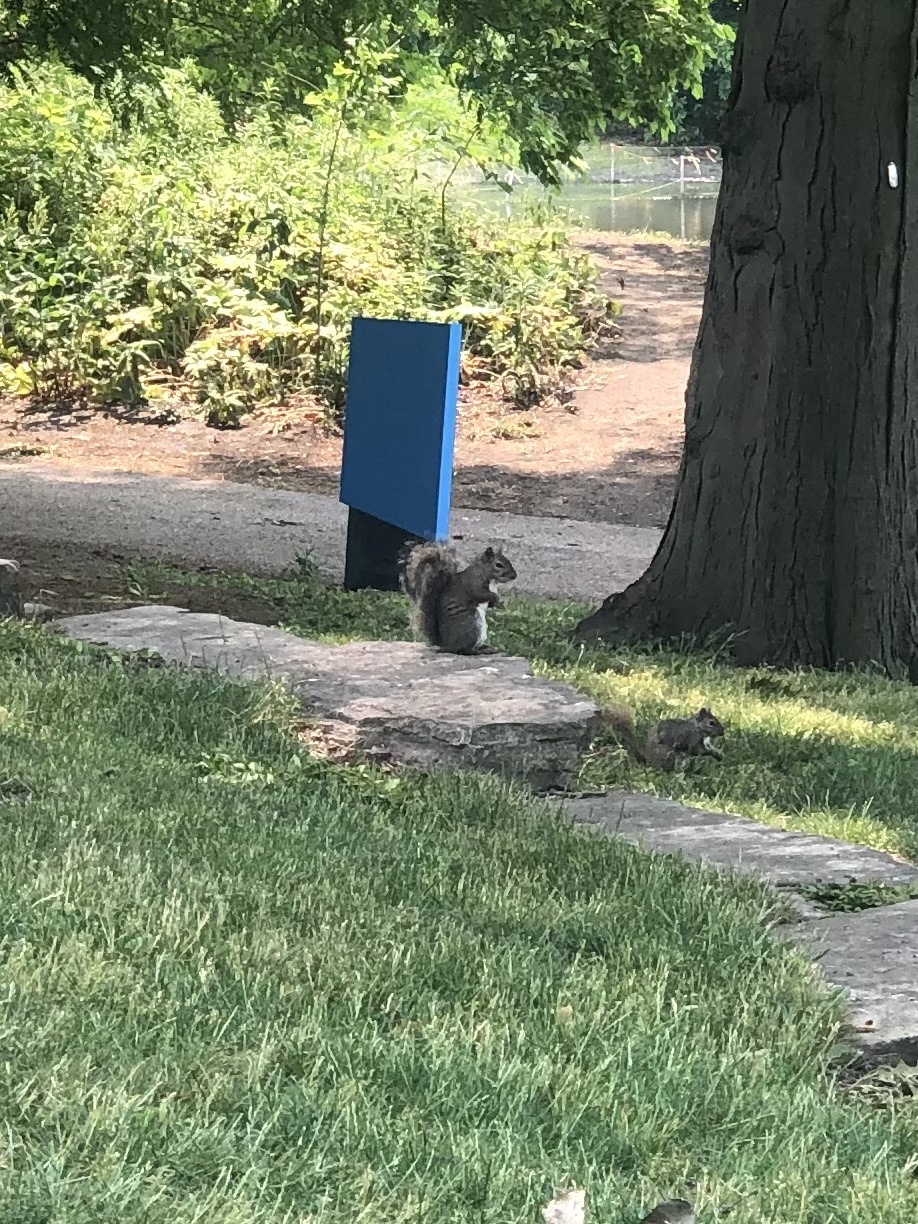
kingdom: Animalia
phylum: Chordata
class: Mammalia
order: Rodentia
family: Sciuridae
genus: Sciurus
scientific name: Sciurus carolinensis
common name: Eastern gray squirrel
